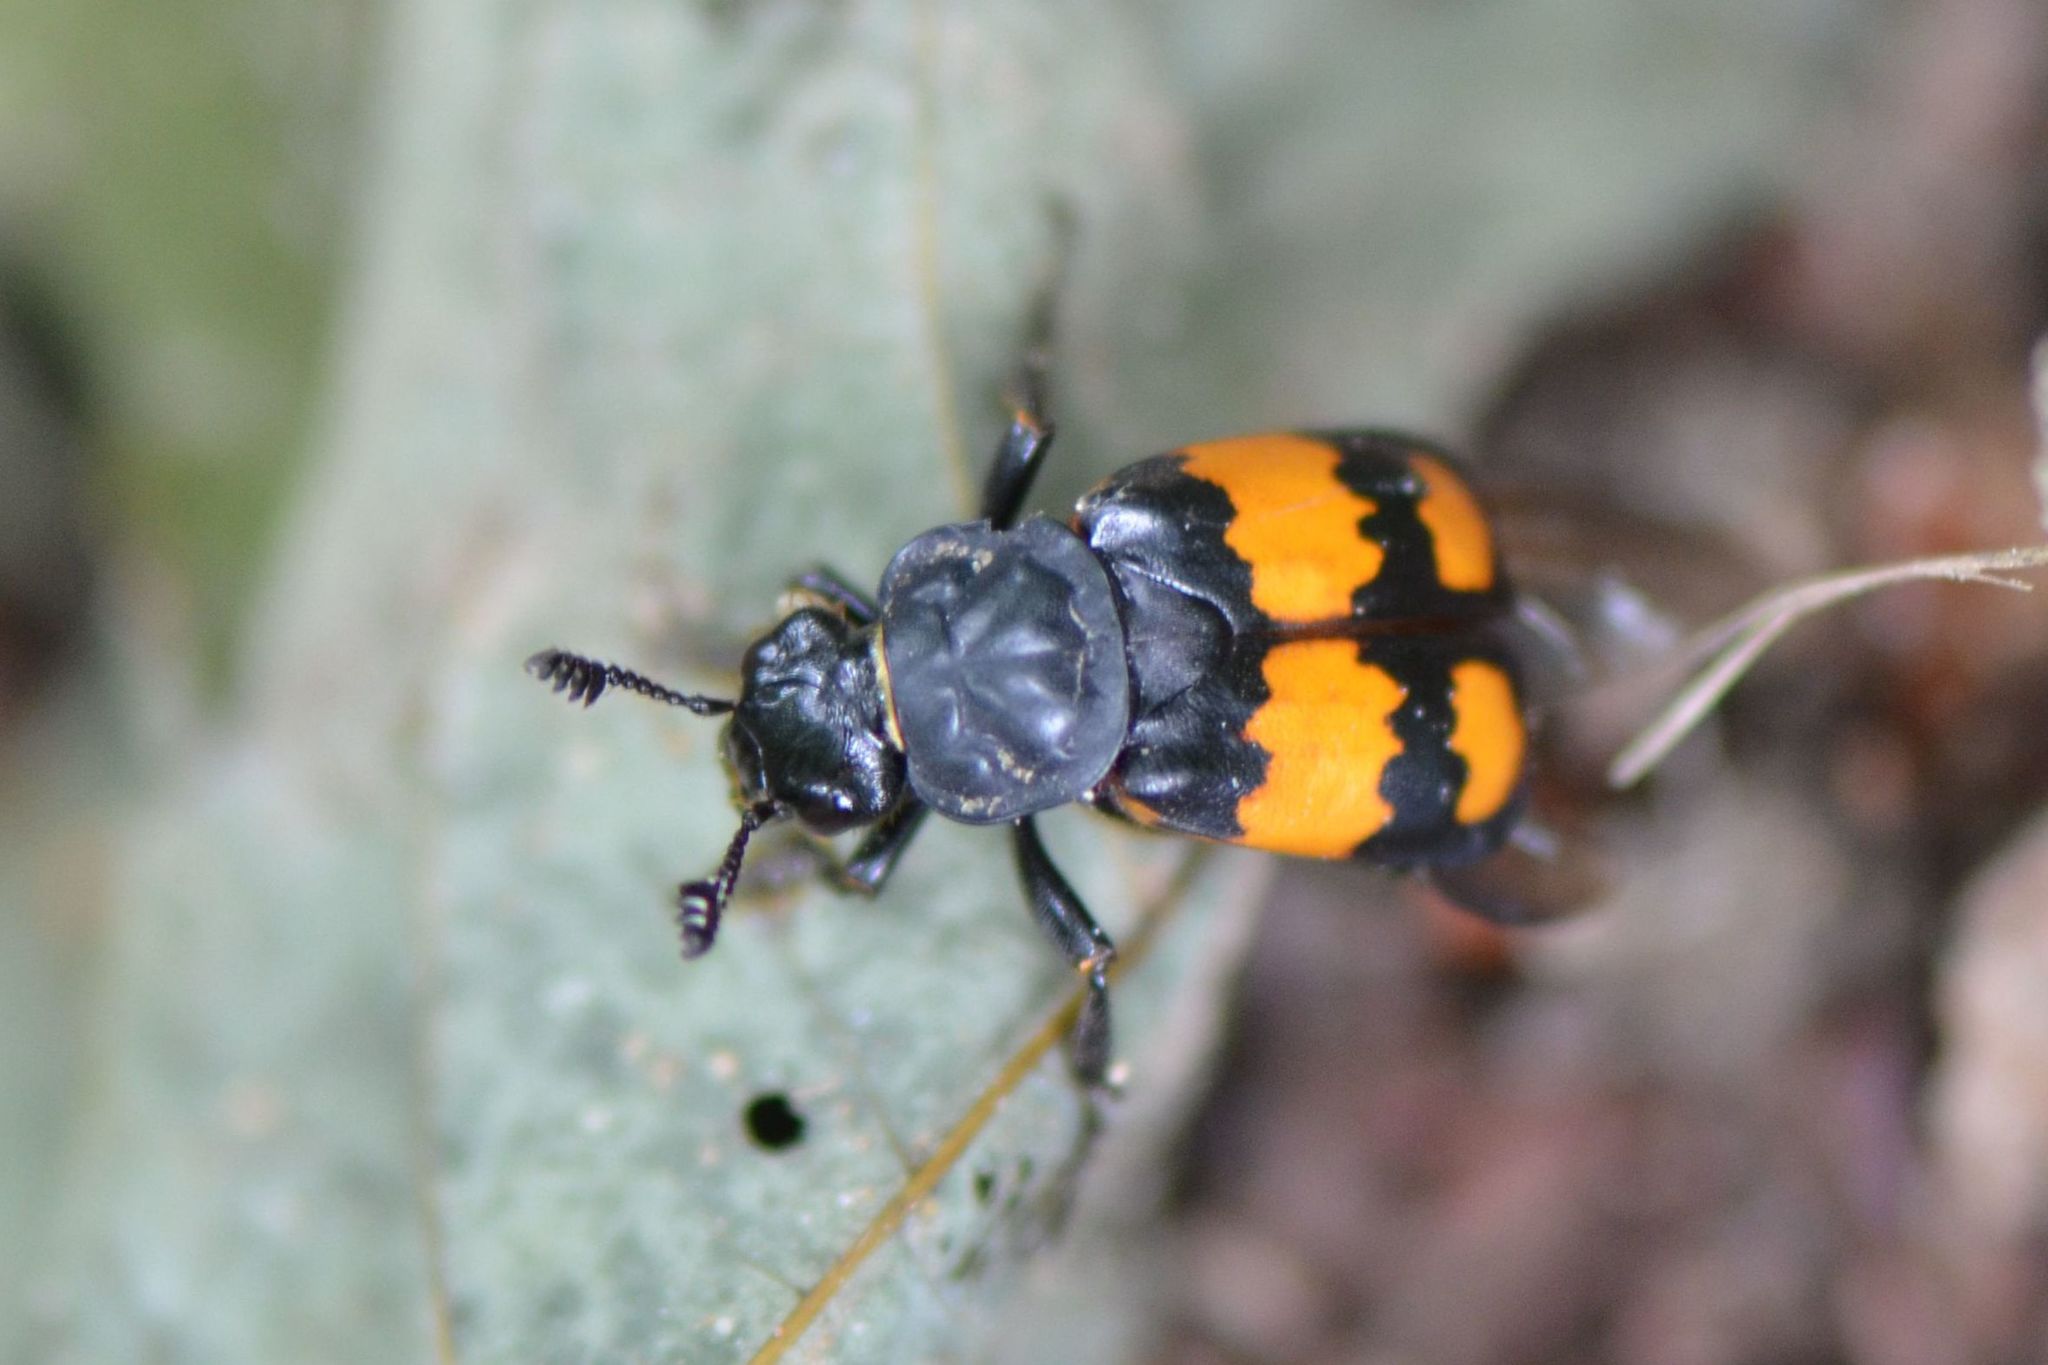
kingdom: Animalia
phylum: Arthropoda
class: Insecta
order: Coleoptera
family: Staphylinidae
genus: Nicrophorus
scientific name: Nicrophorus vespilloides
